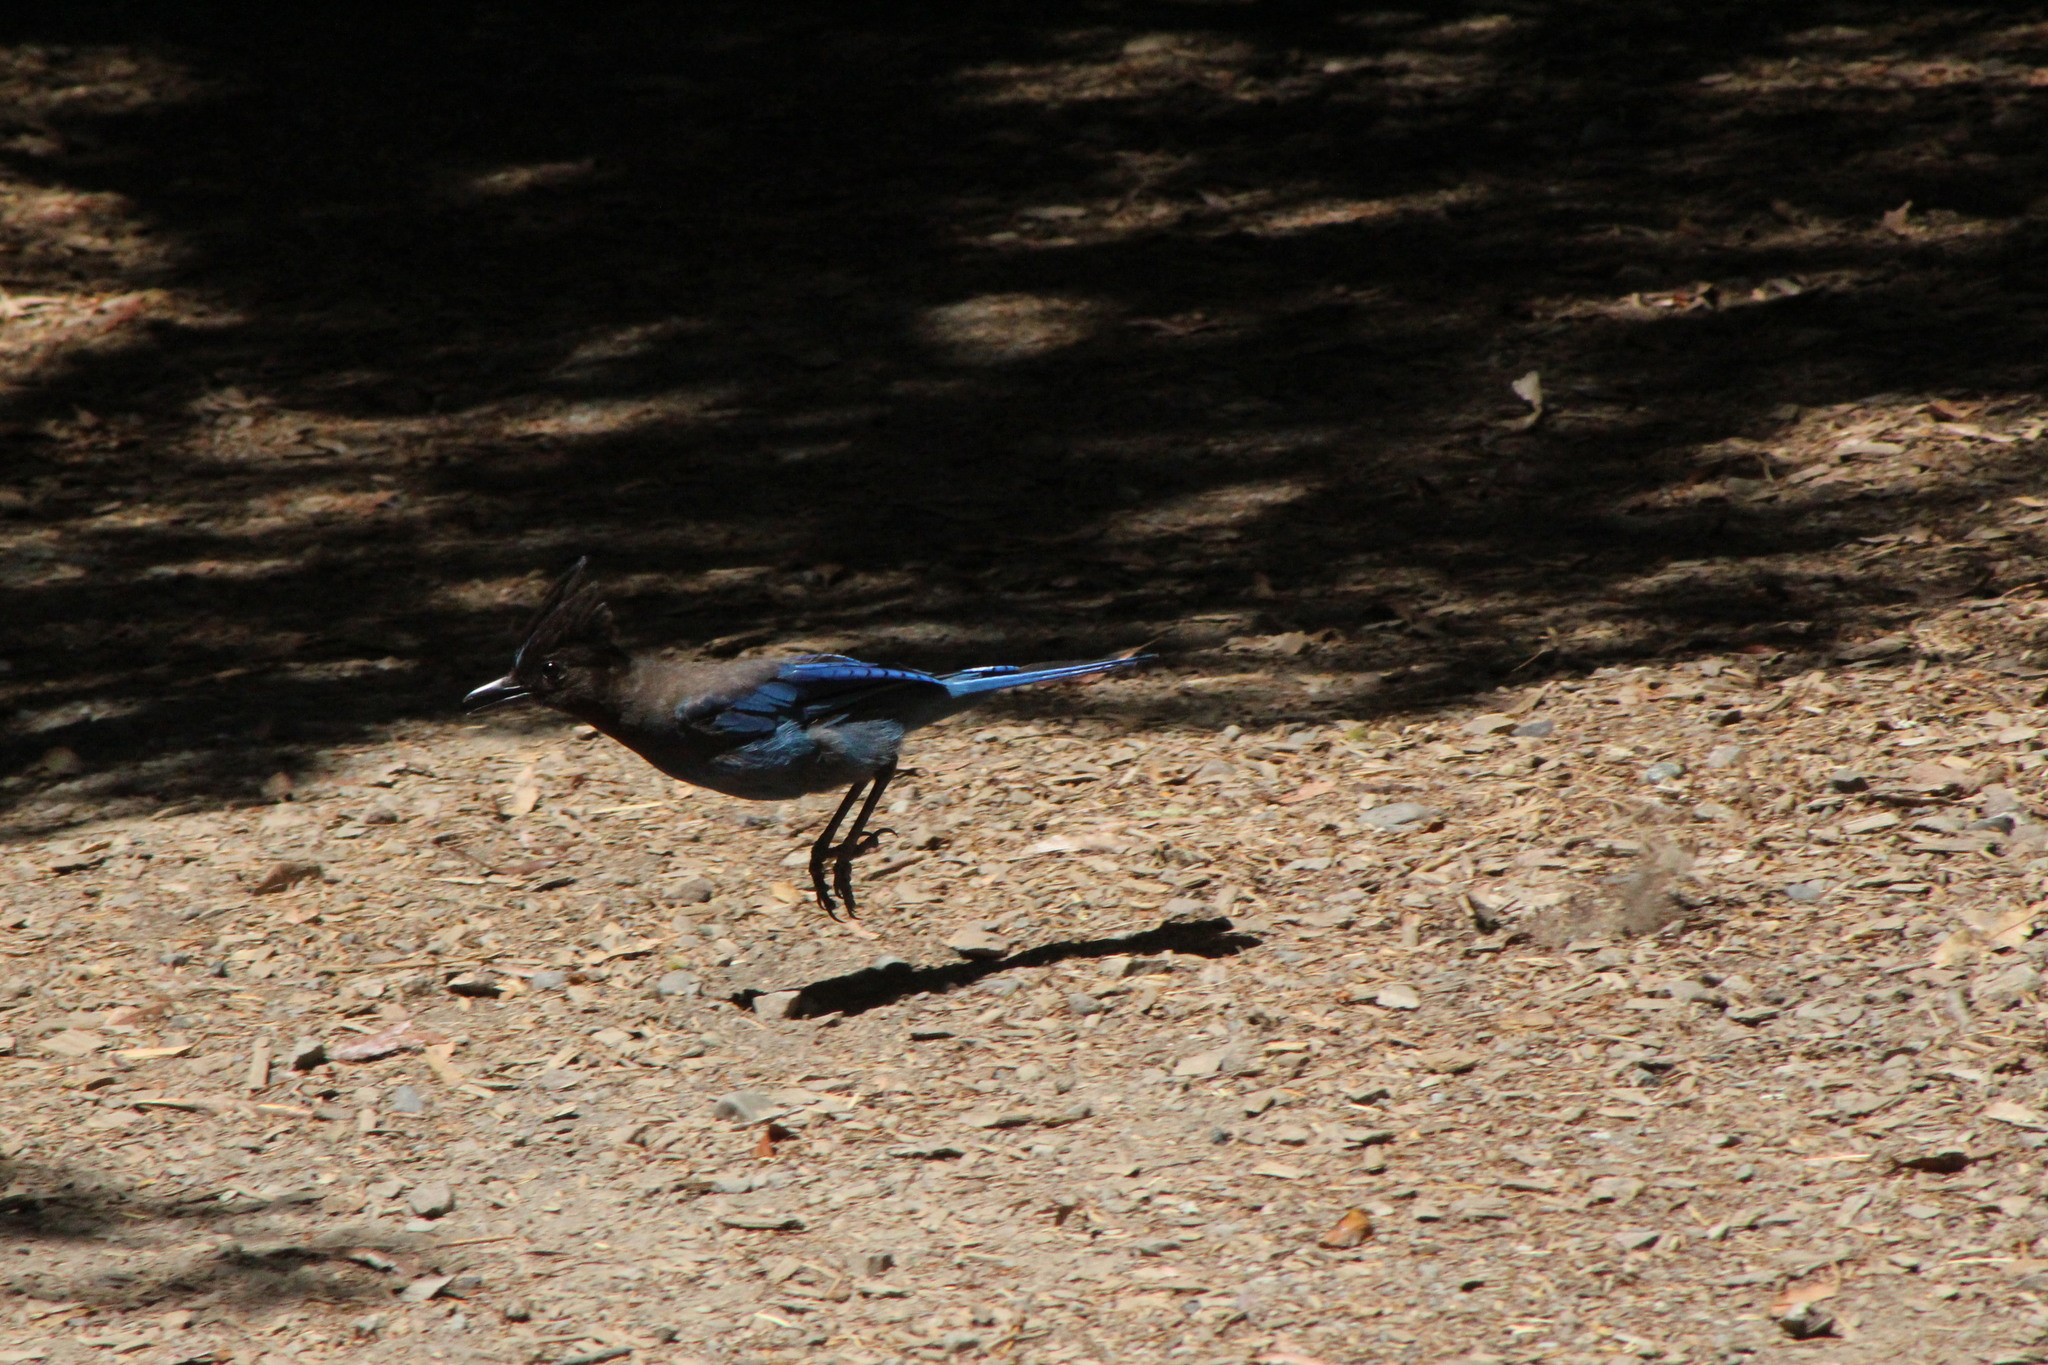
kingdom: Animalia
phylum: Chordata
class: Aves
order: Passeriformes
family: Corvidae
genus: Cyanocitta
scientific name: Cyanocitta stelleri
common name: Steller's jay
